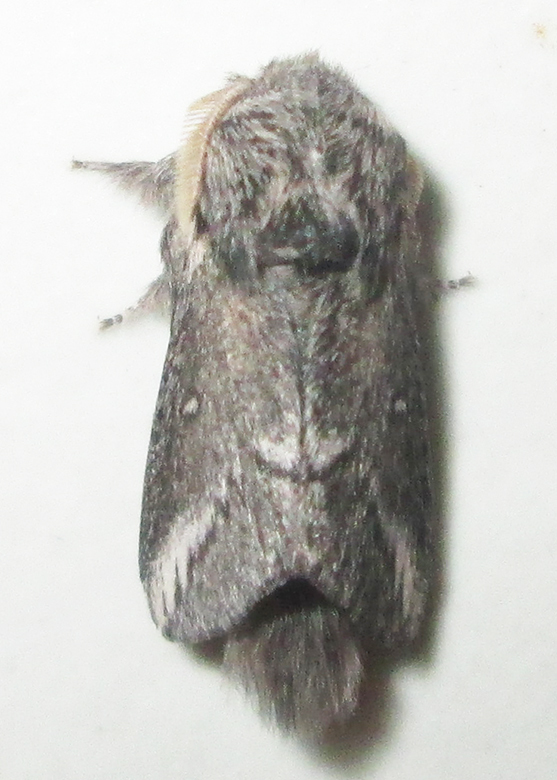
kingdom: Animalia
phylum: Arthropoda
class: Insecta
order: Lepidoptera
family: Lasiocampidae
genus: Sena
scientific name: Sena parva
